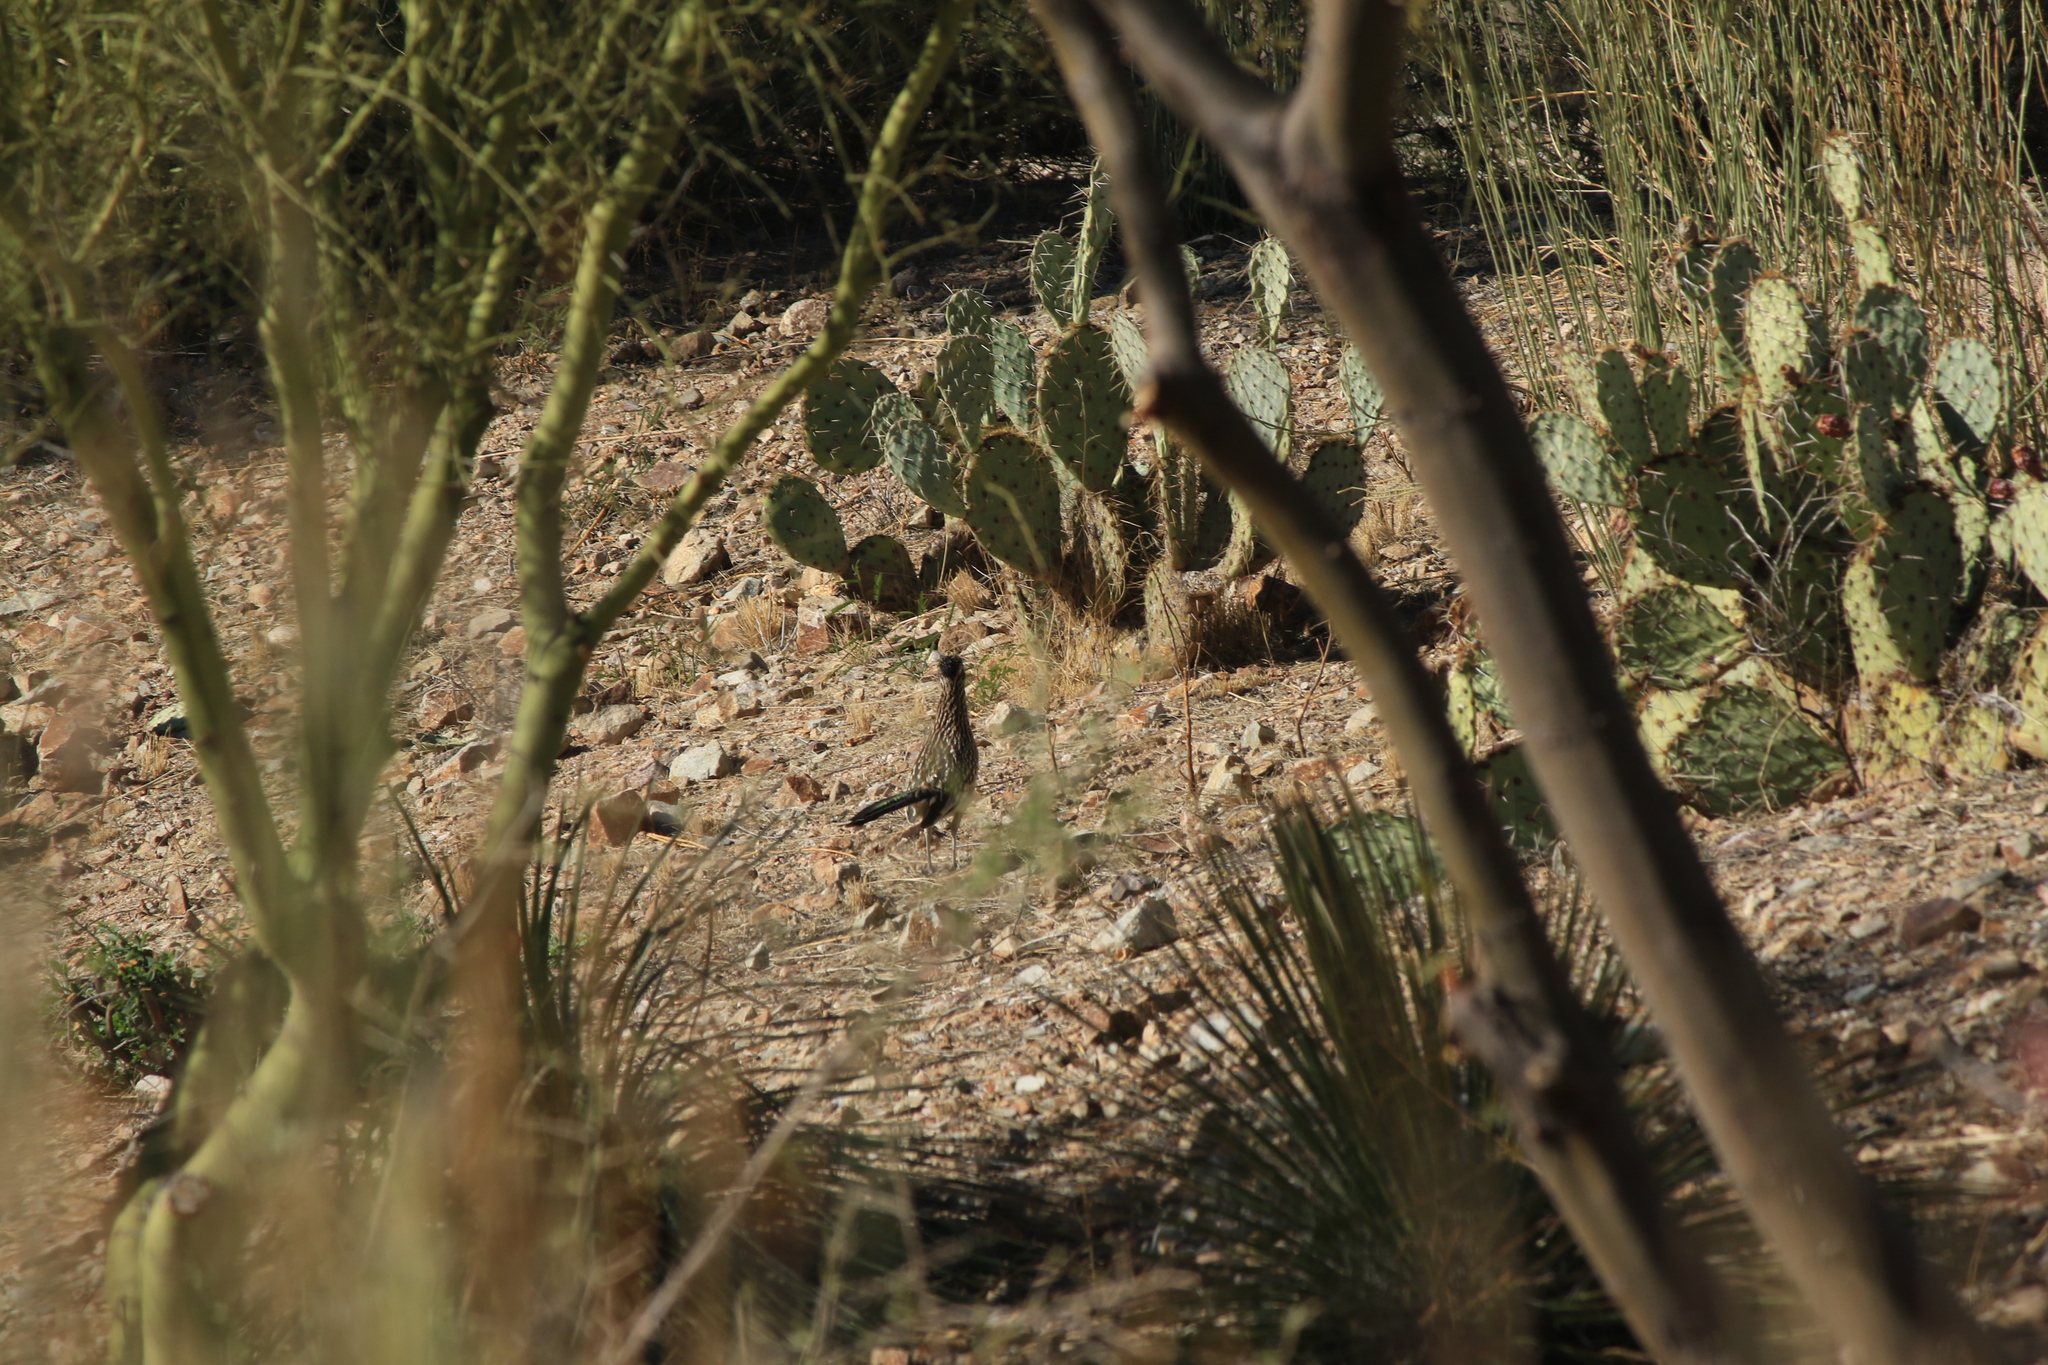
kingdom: Animalia
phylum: Chordata
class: Aves
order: Cuculiformes
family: Cuculidae
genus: Geococcyx
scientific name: Geococcyx californianus
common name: Greater roadrunner
